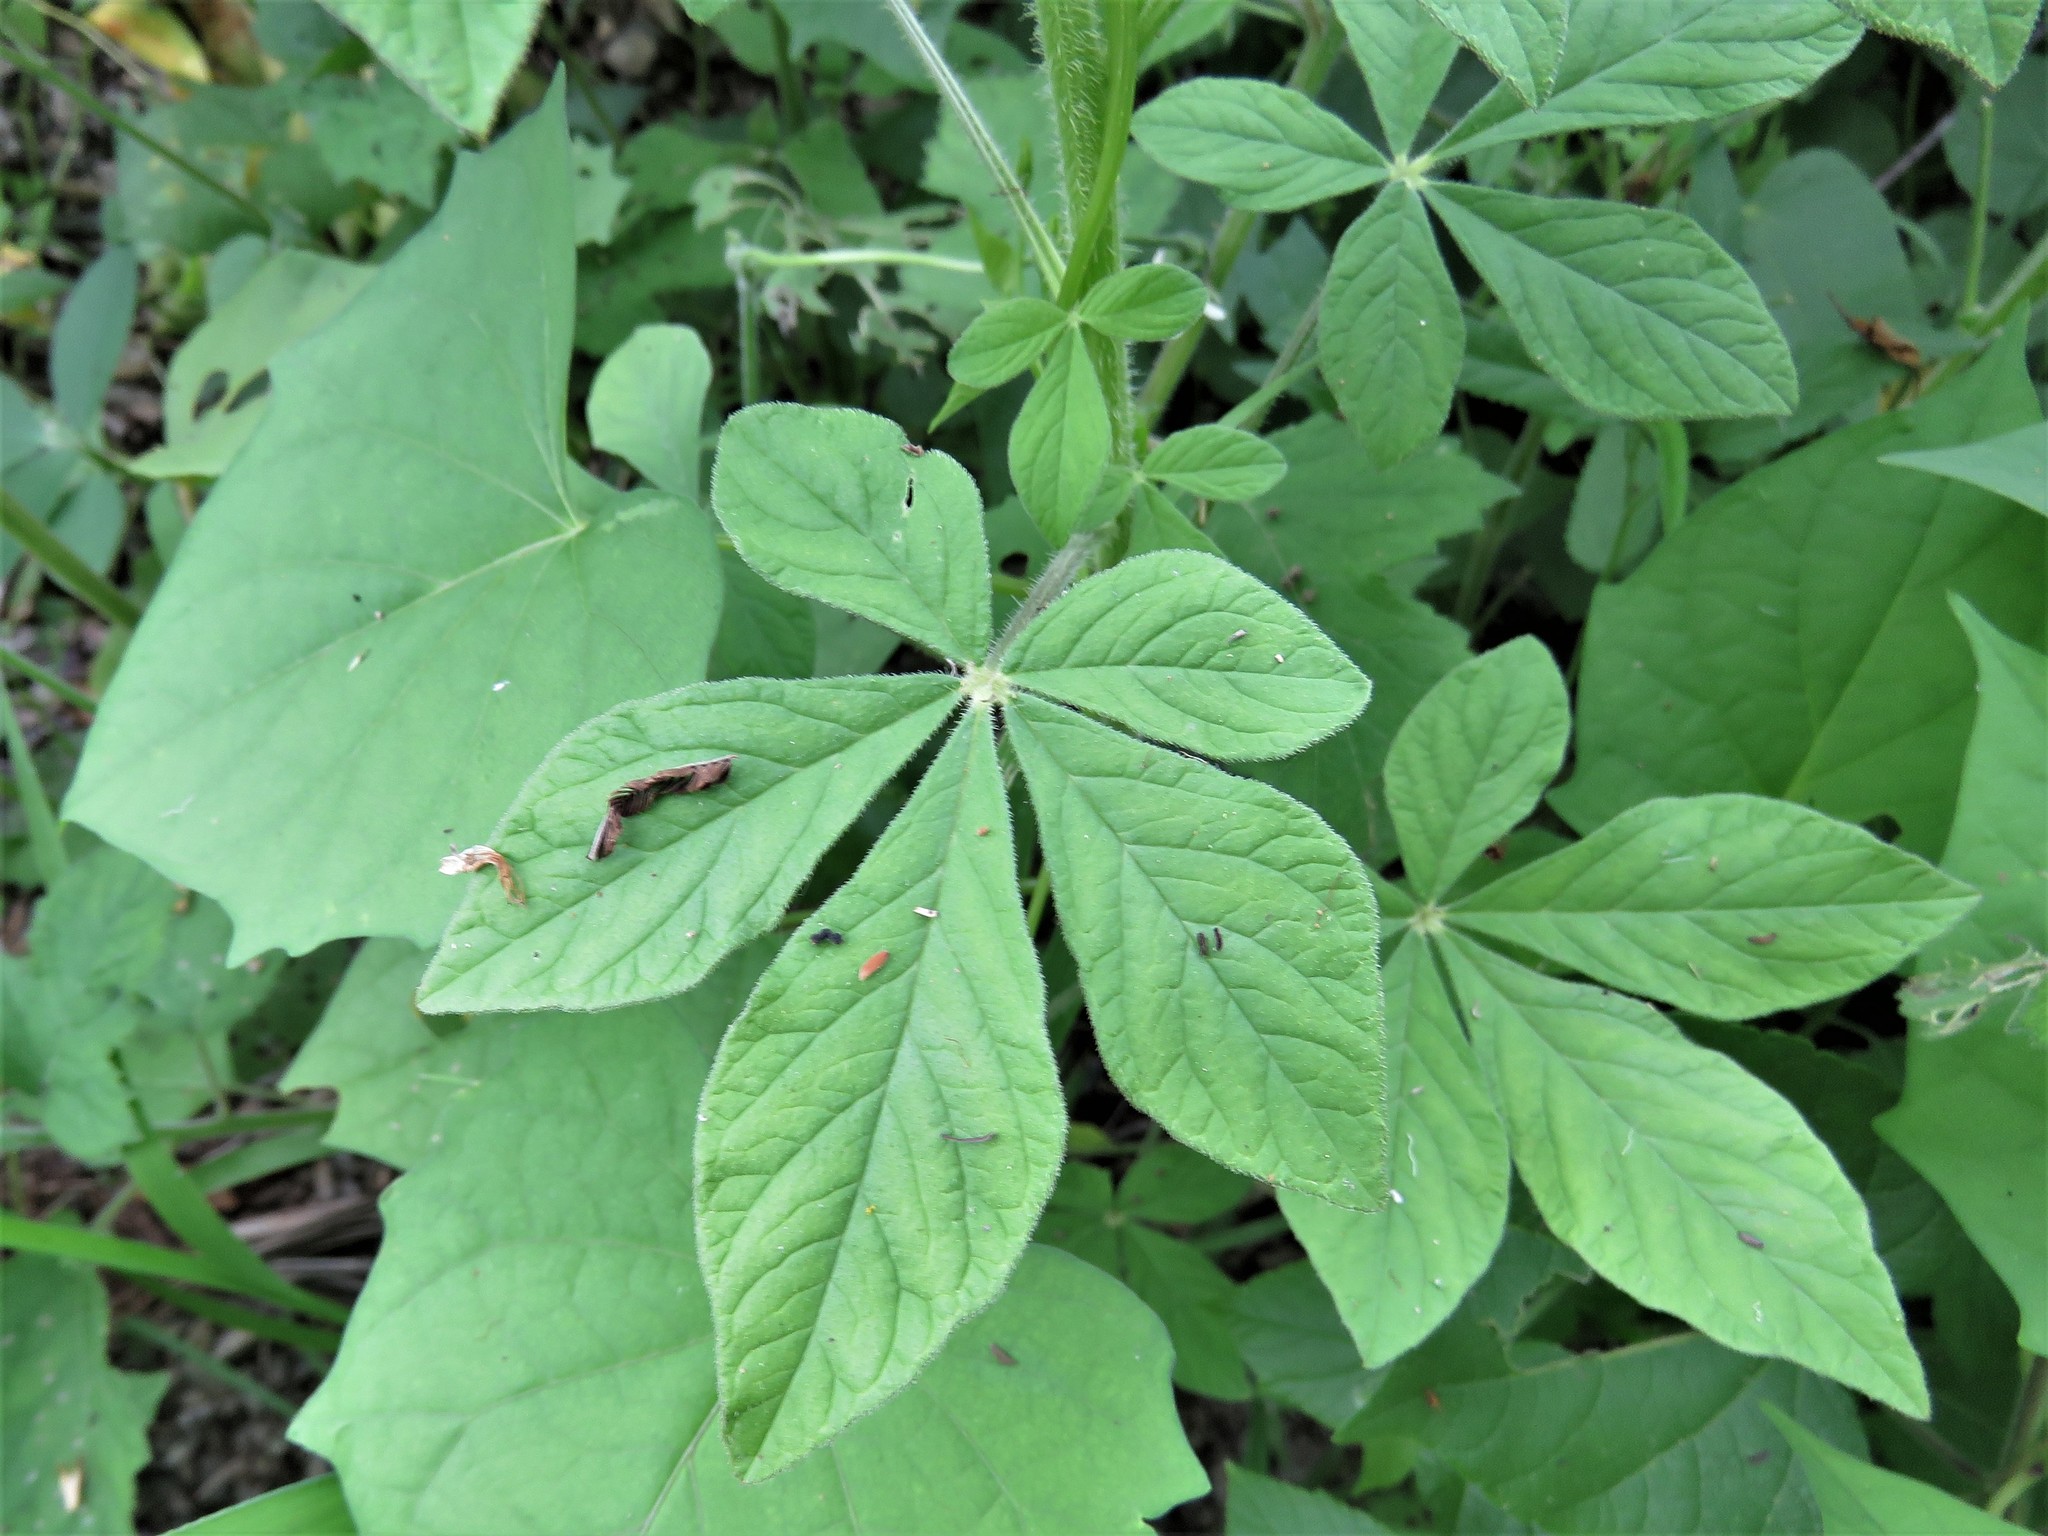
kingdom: Plantae
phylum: Tracheophyta
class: Magnoliopsida
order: Brassicales
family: Cleomaceae
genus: Arivela
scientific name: Arivela viscosa
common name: Asian spiderflower
